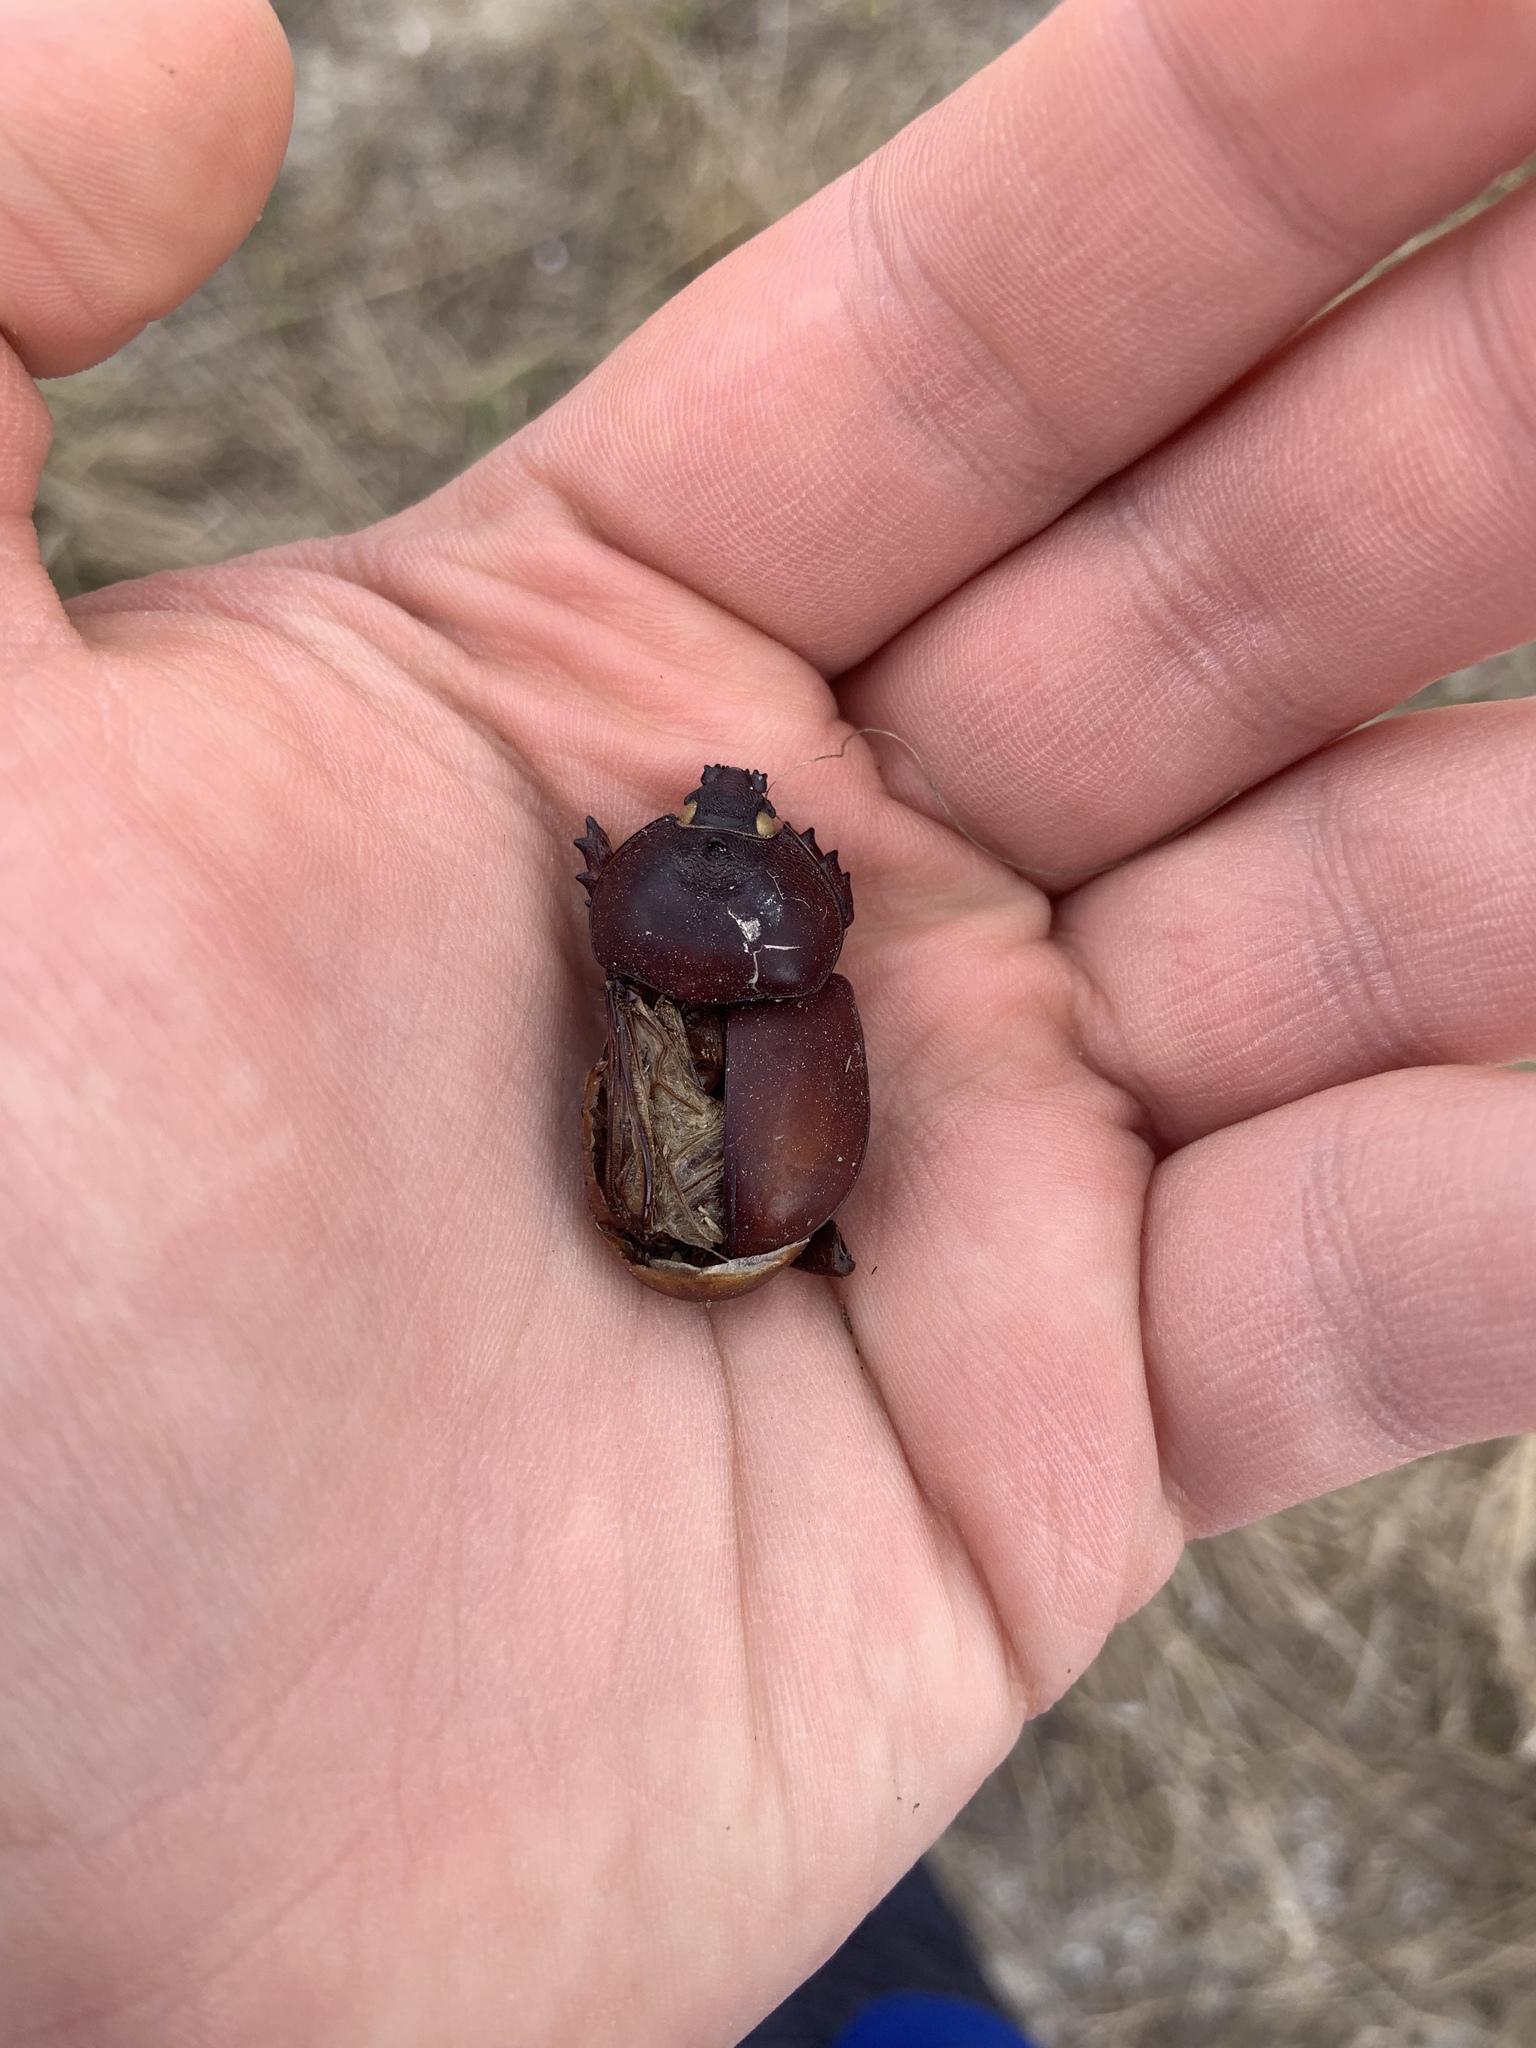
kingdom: Animalia
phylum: Arthropoda
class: Insecta
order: Coleoptera
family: Scarabaeidae
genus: Strategus
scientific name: Strategus antaeus
